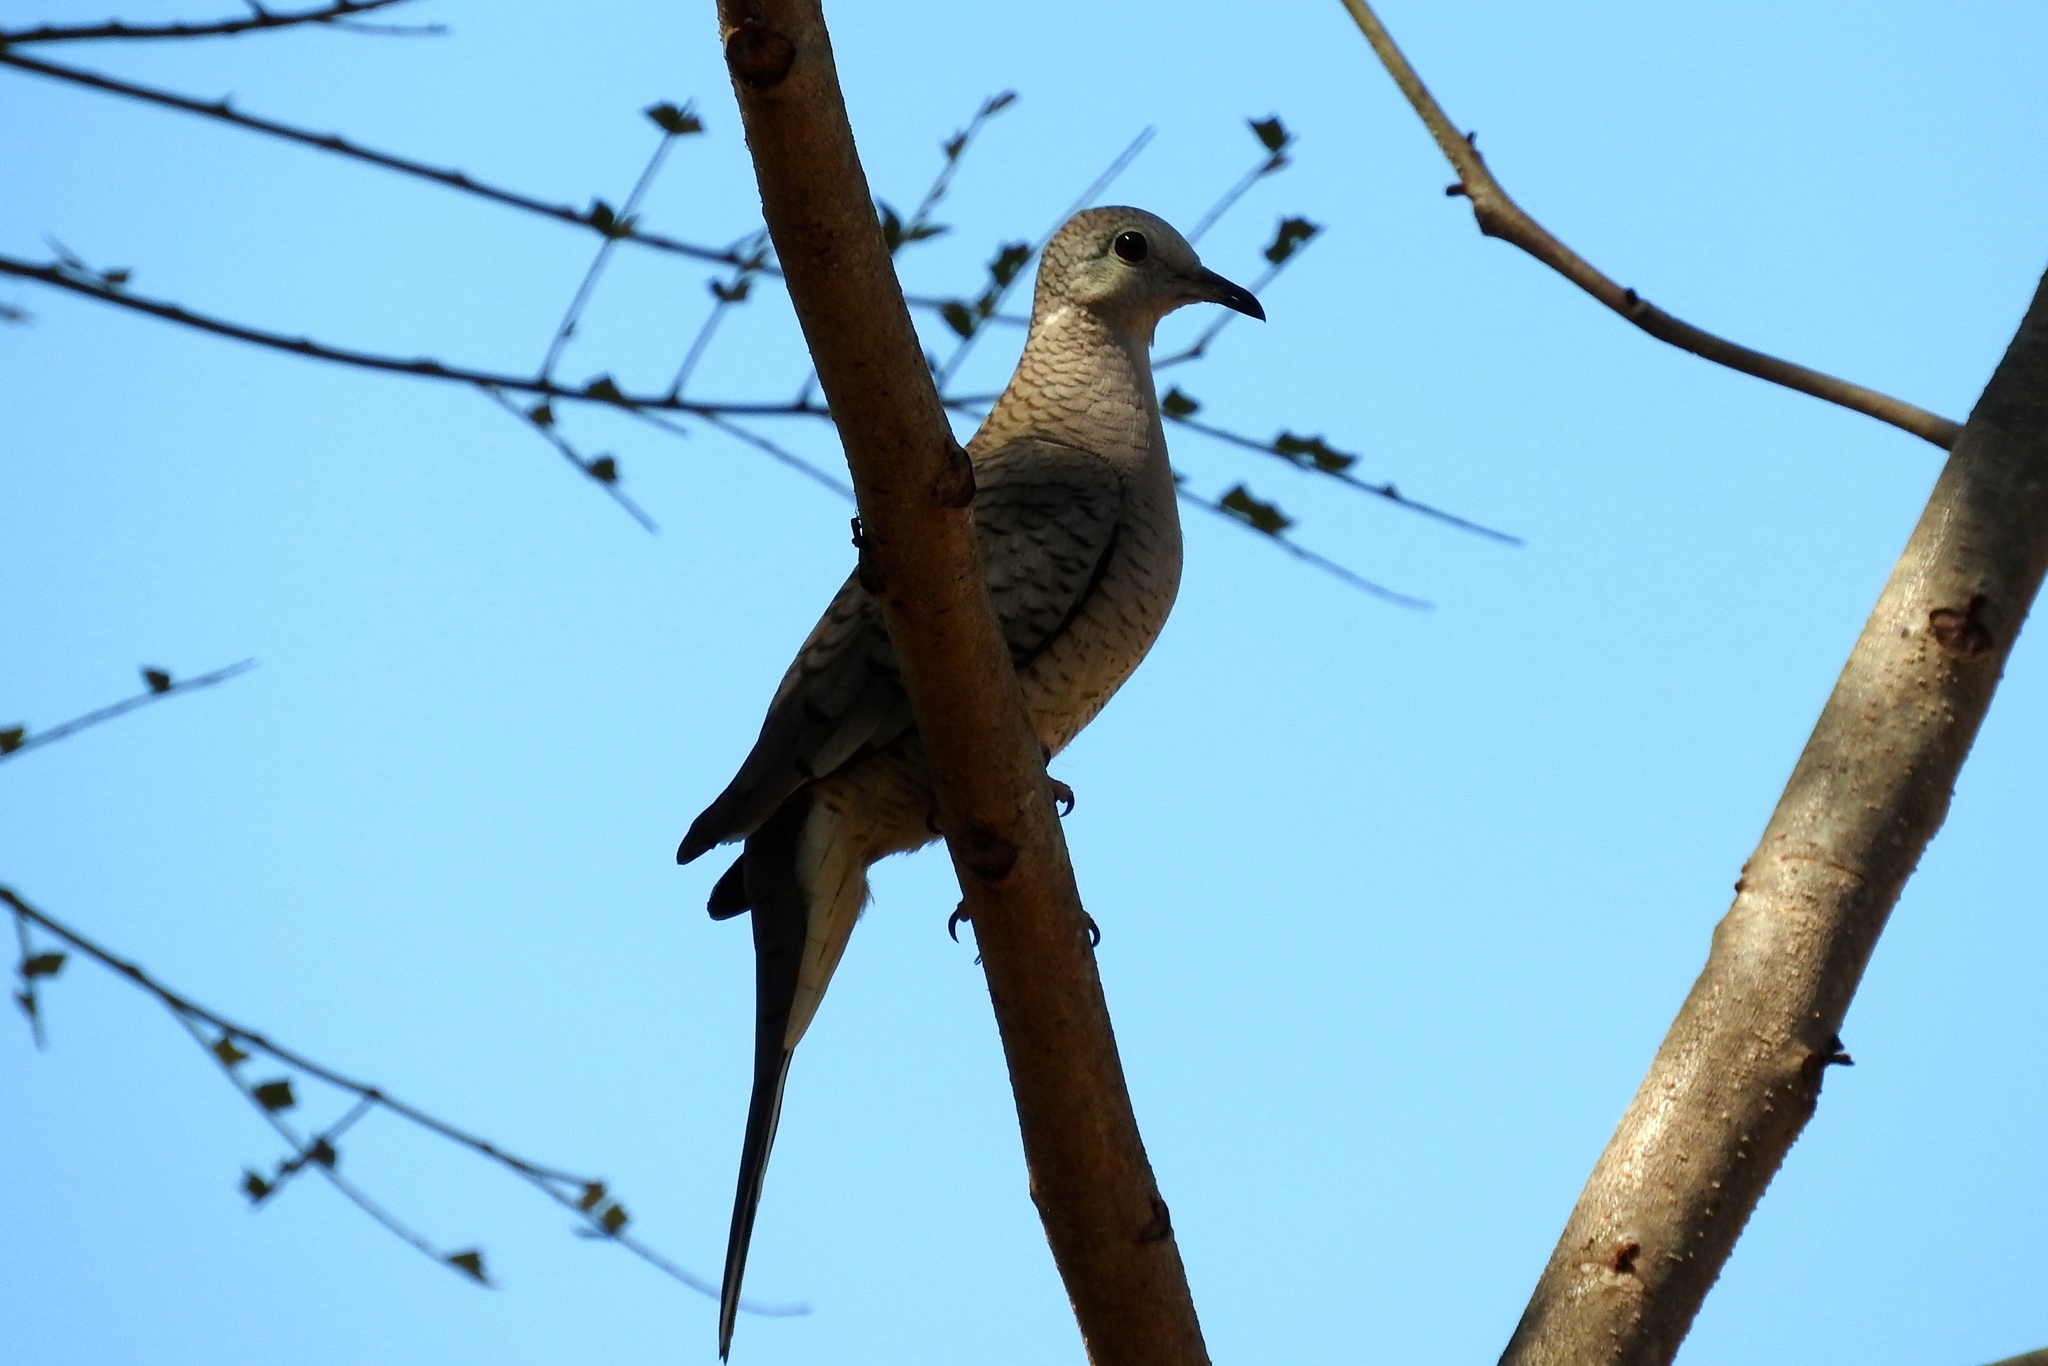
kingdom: Animalia
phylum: Chordata
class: Aves
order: Columbiformes
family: Columbidae
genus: Columbina
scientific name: Columbina inca
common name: Inca dove
